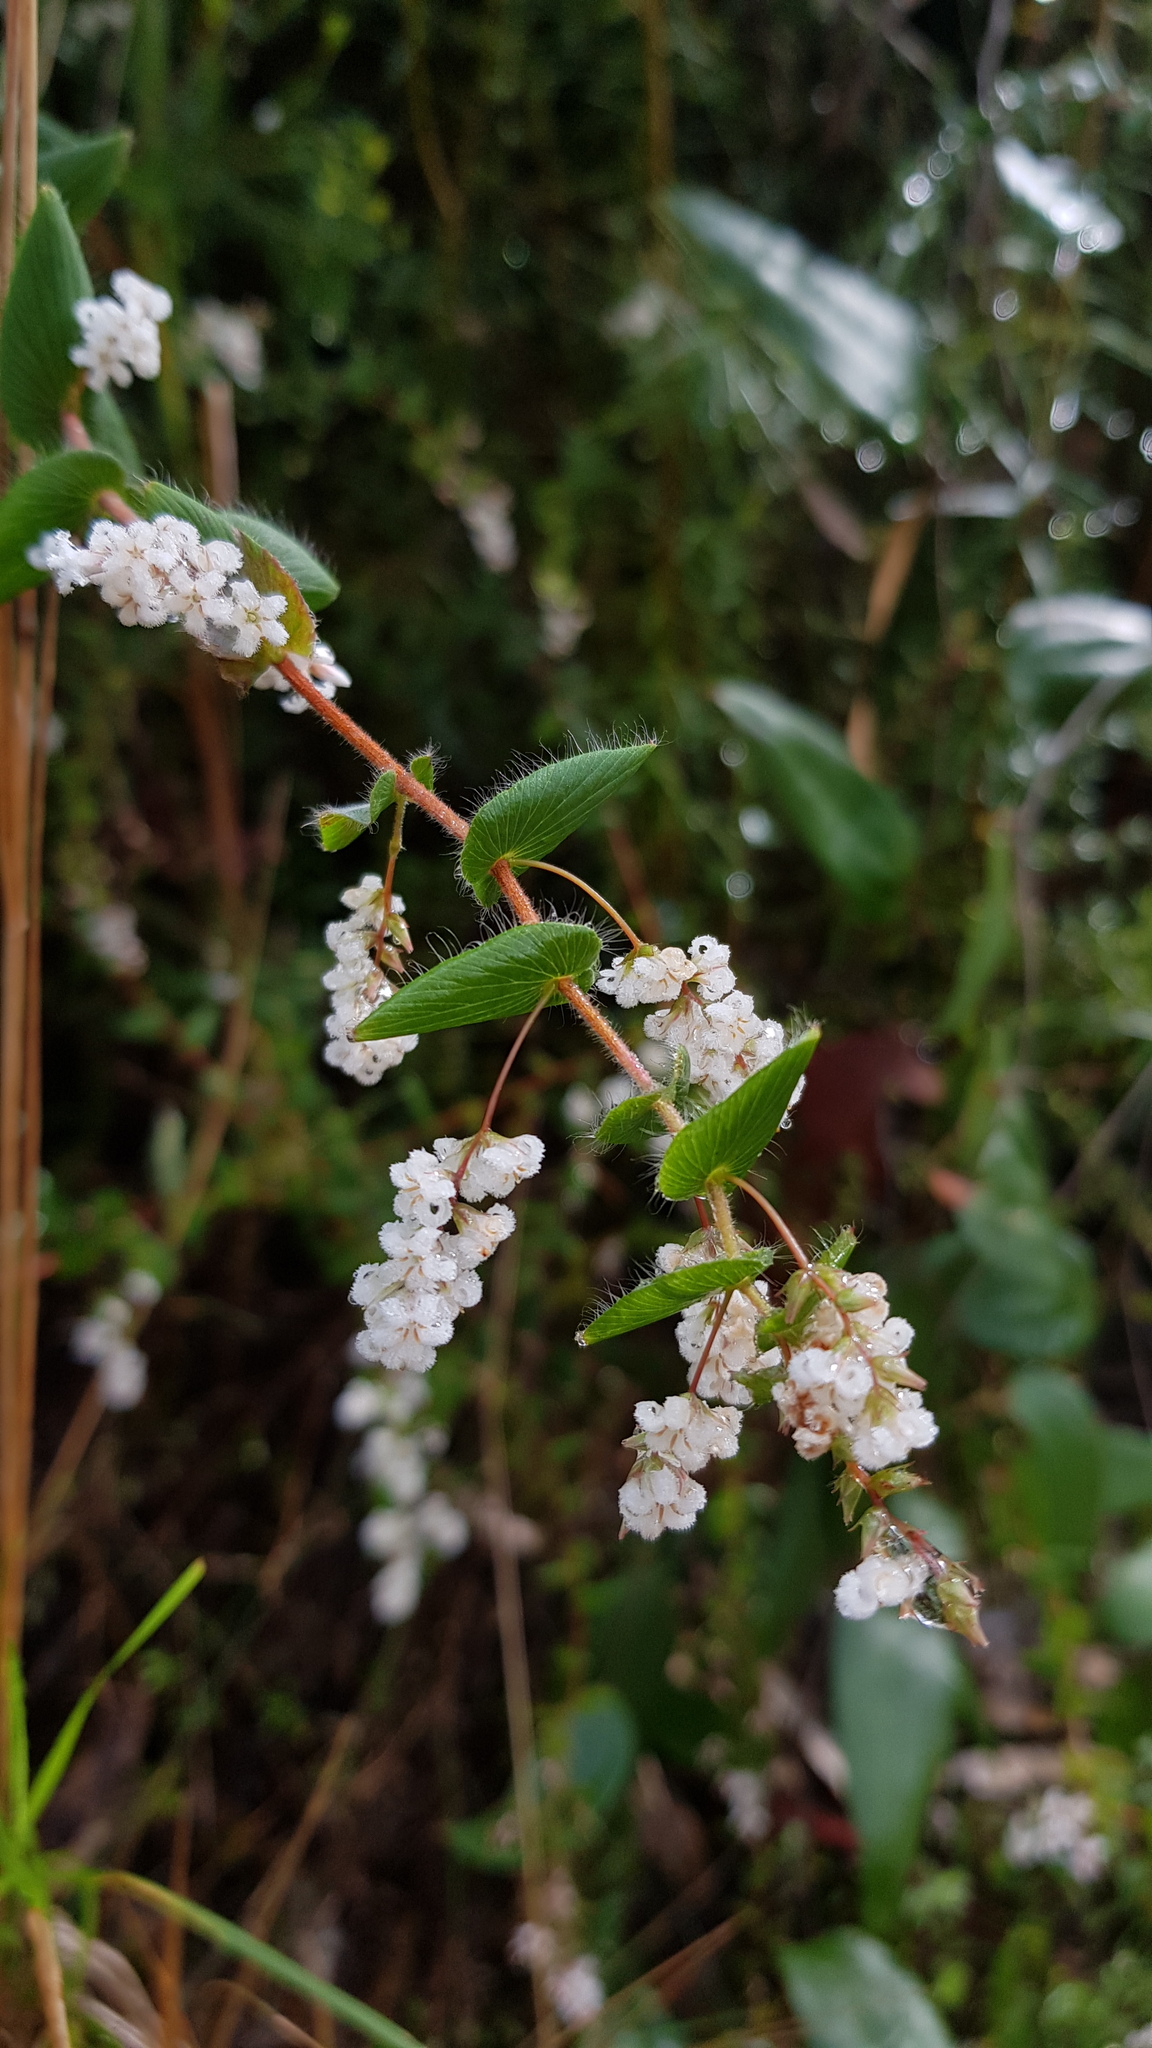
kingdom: Plantae
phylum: Tracheophyta
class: Magnoliopsida
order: Ericales
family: Ericaceae
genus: Leucopogon
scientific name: Leucopogon amplexicaulis
